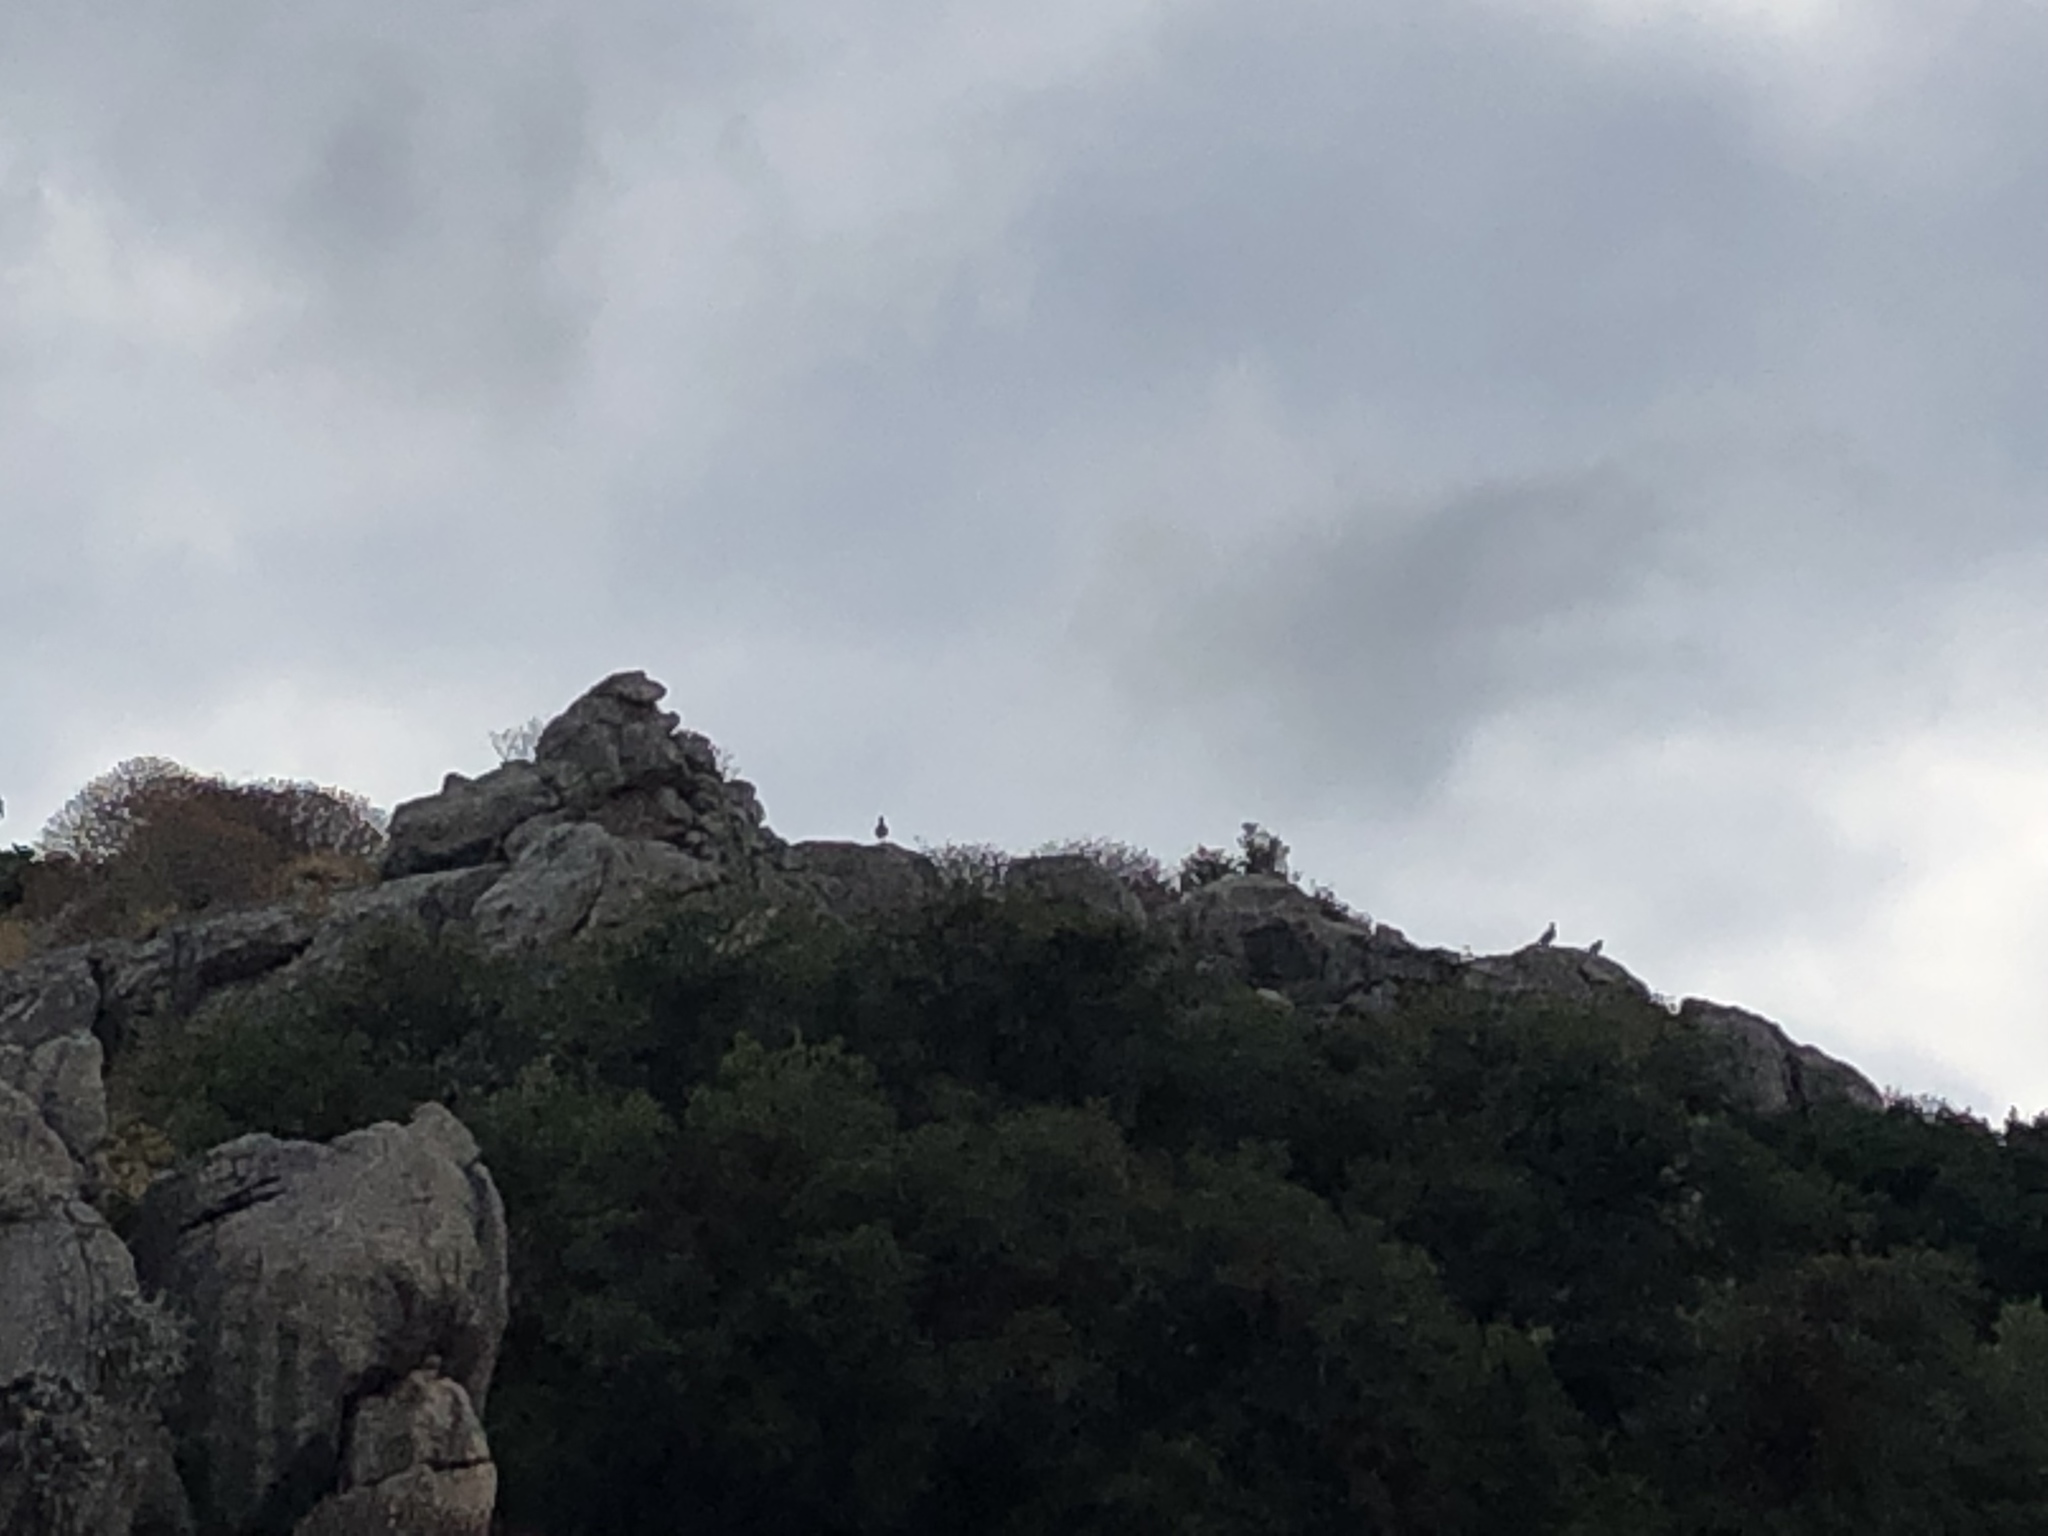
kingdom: Animalia
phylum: Chordata
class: Aves
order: Galliformes
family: Phasianidae
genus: Alectoris
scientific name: Alectoris chukar
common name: Chukar
